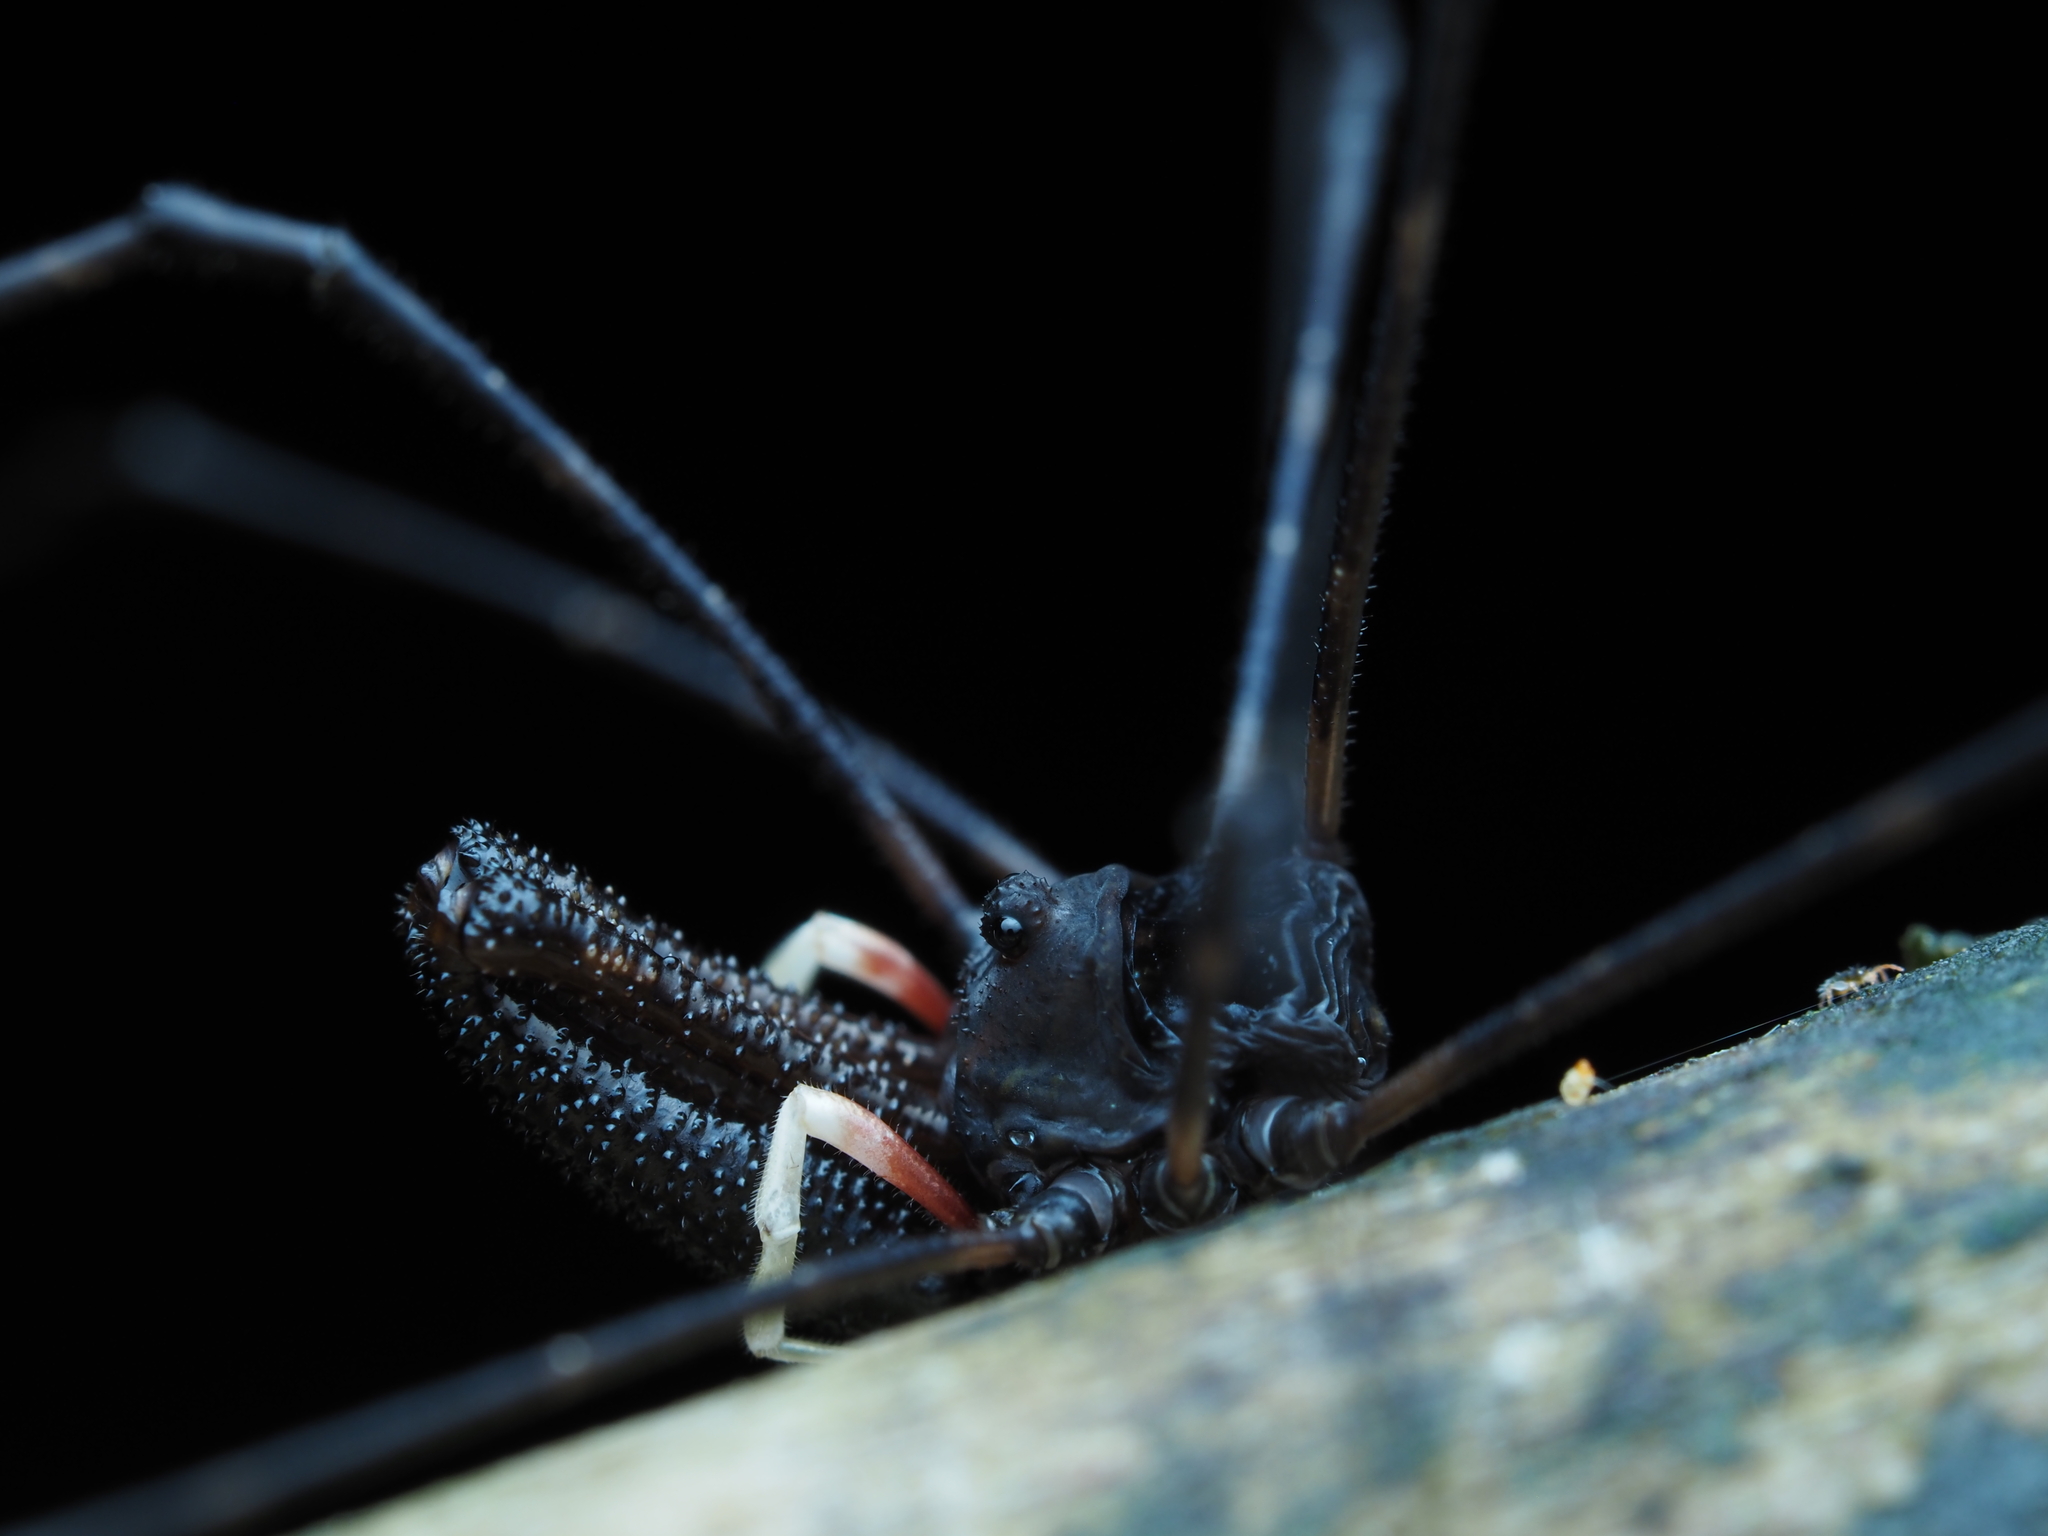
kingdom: Animalia
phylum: Arthropoda
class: Arachnida
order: Opiliones
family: Neopilionidae
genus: Pantopsalis
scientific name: Pantopsalis cheliferoides
